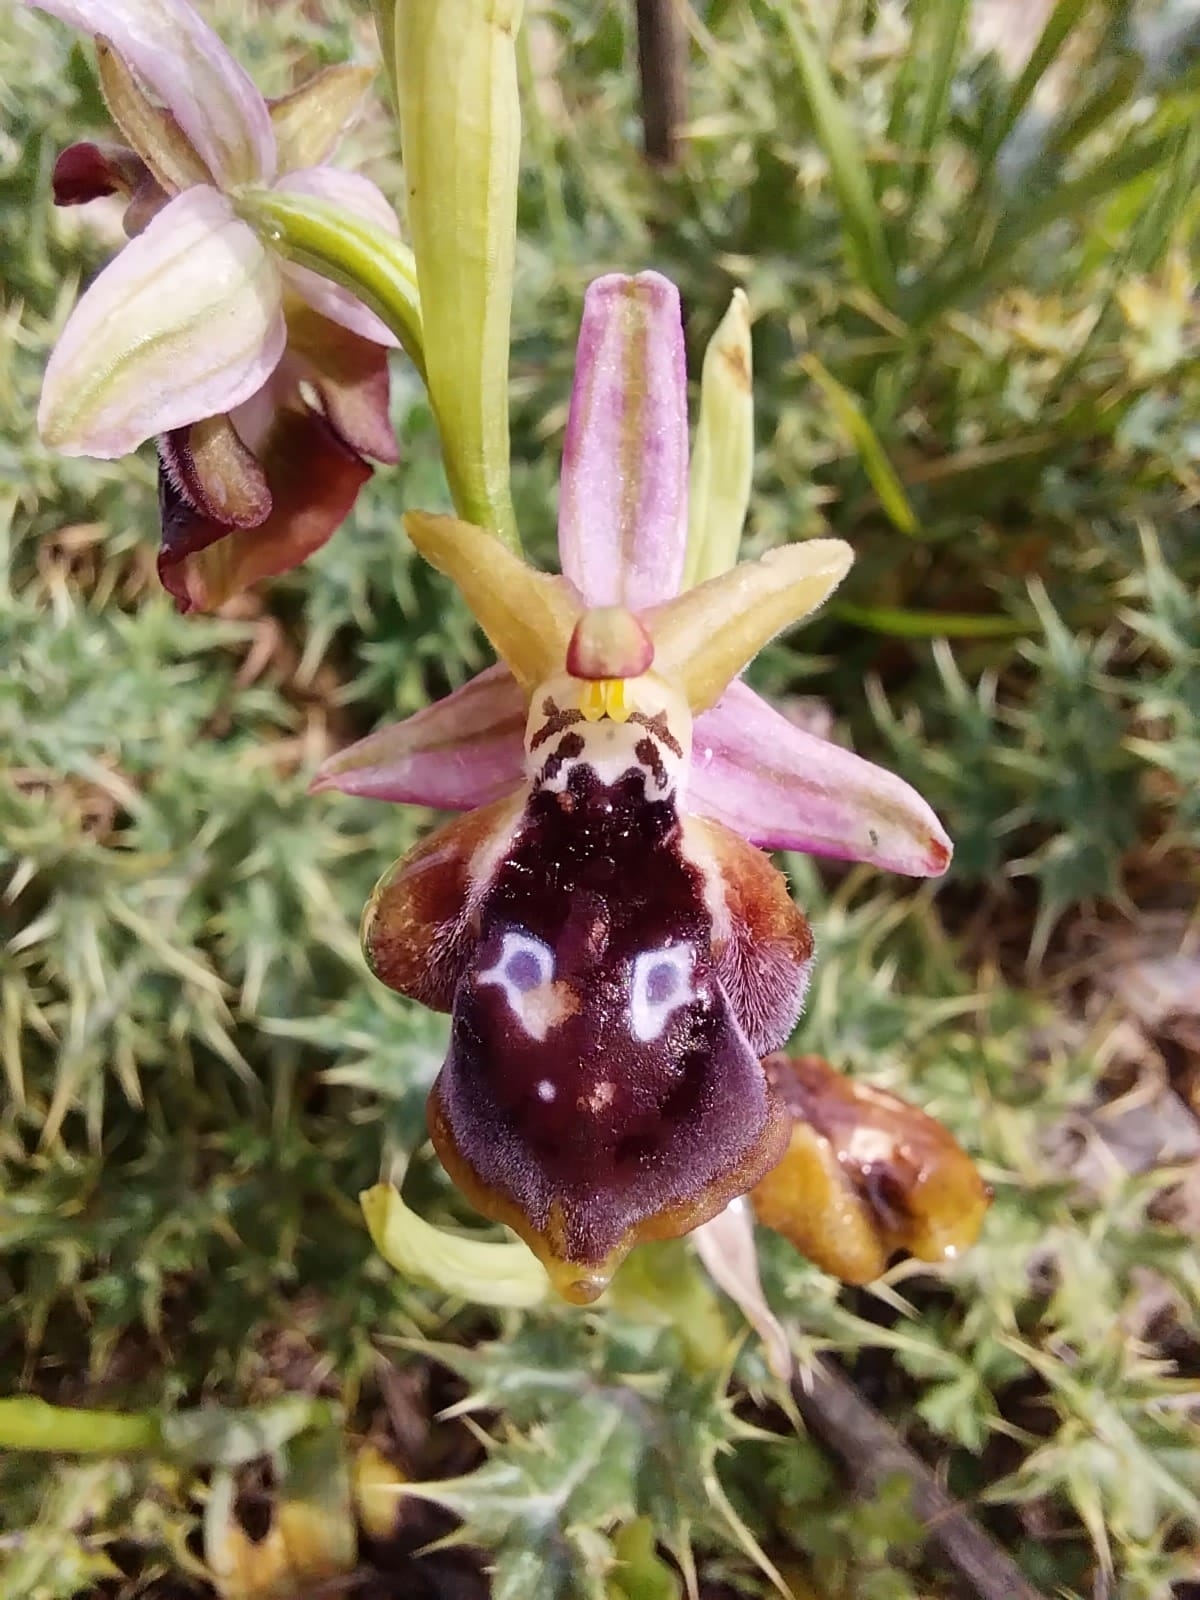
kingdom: Plantae
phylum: Tracheophyta
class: Liliopsida
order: Asparagales
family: Orchidaceae
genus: Ophrys
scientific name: Ophrys reinholdii
